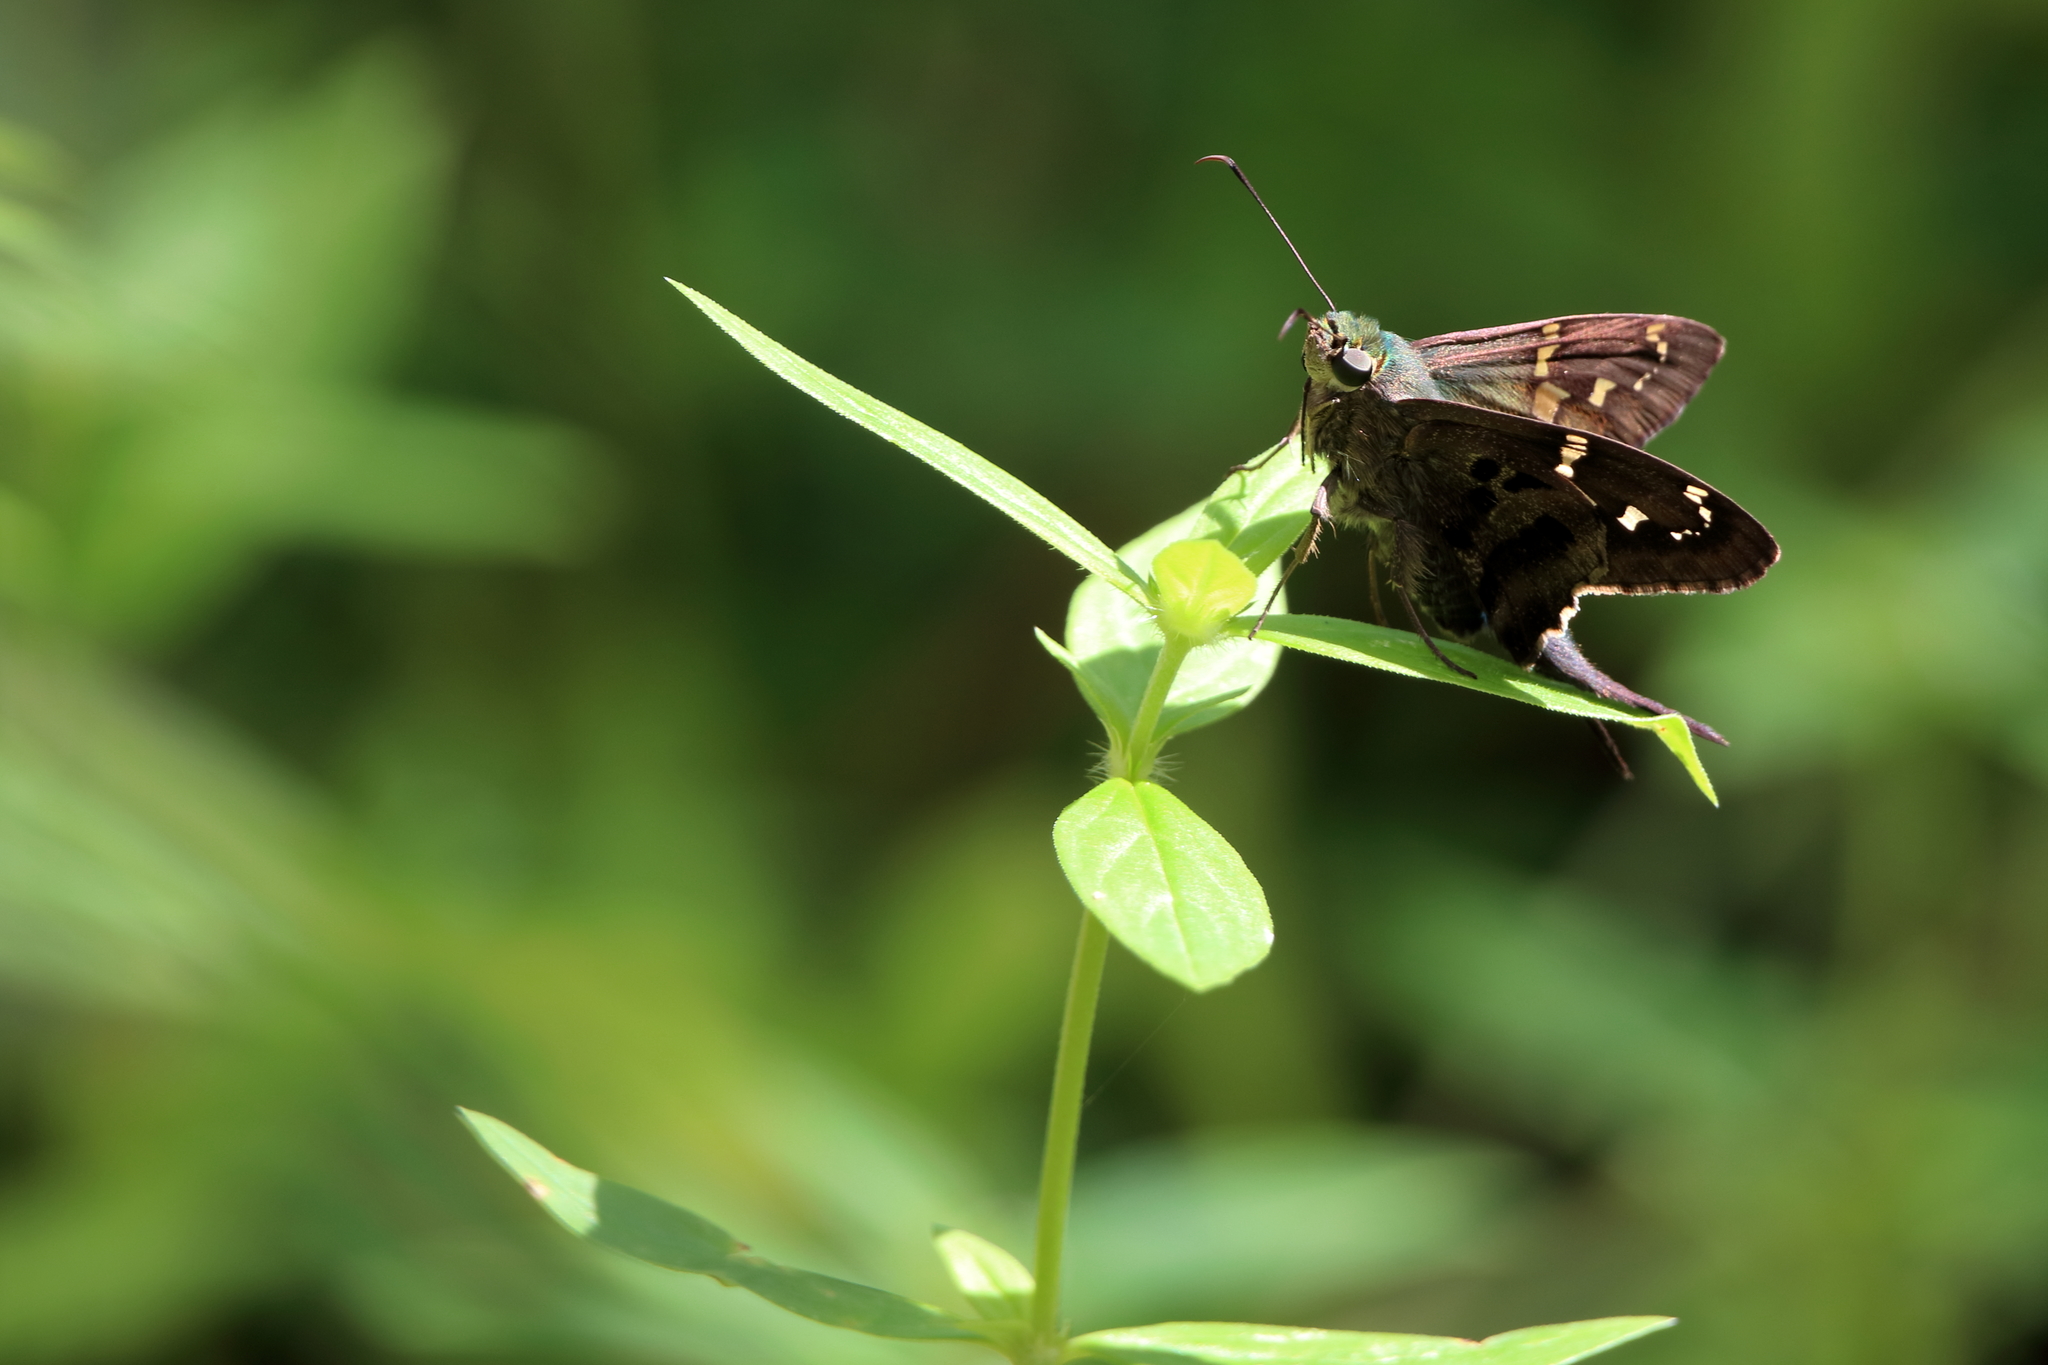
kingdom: Animalia
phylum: Arthropoda
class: Insecta
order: Lepidoptera
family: Hesperiidae
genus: Urbanus
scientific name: Urbanus proteus
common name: Long-tailed skipper
